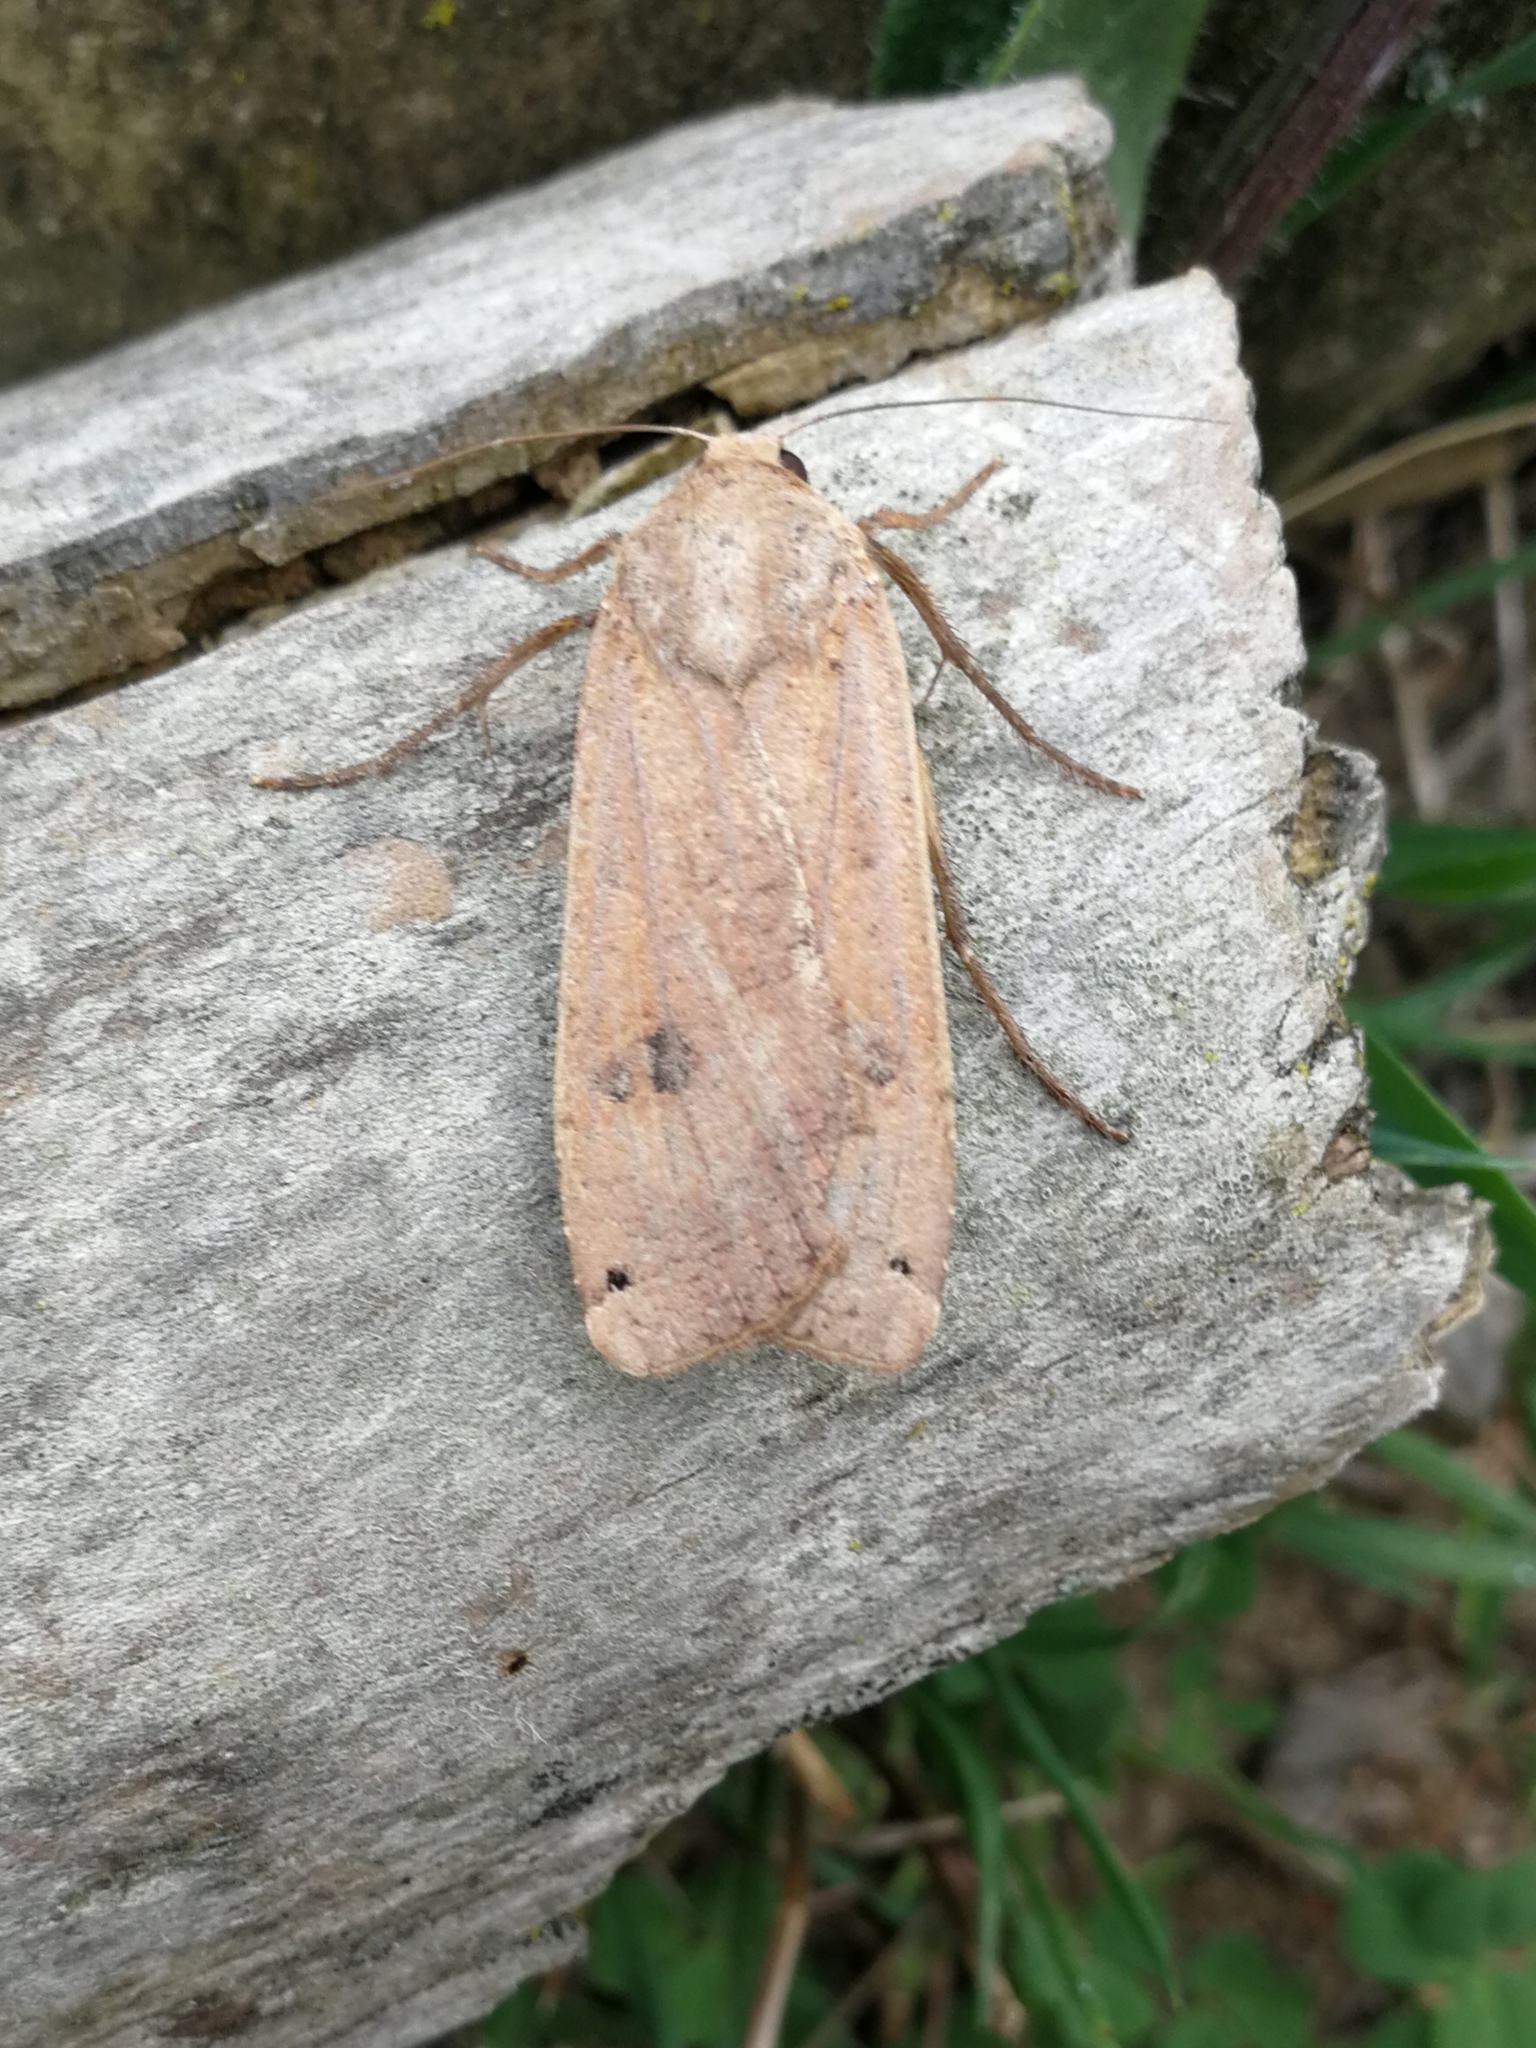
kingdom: Animalia
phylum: Arthropoda
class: Insecta
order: Lepidoptera
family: Noctuidae
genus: Noctua
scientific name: Noctua pronuba
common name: Large yellow underwing
